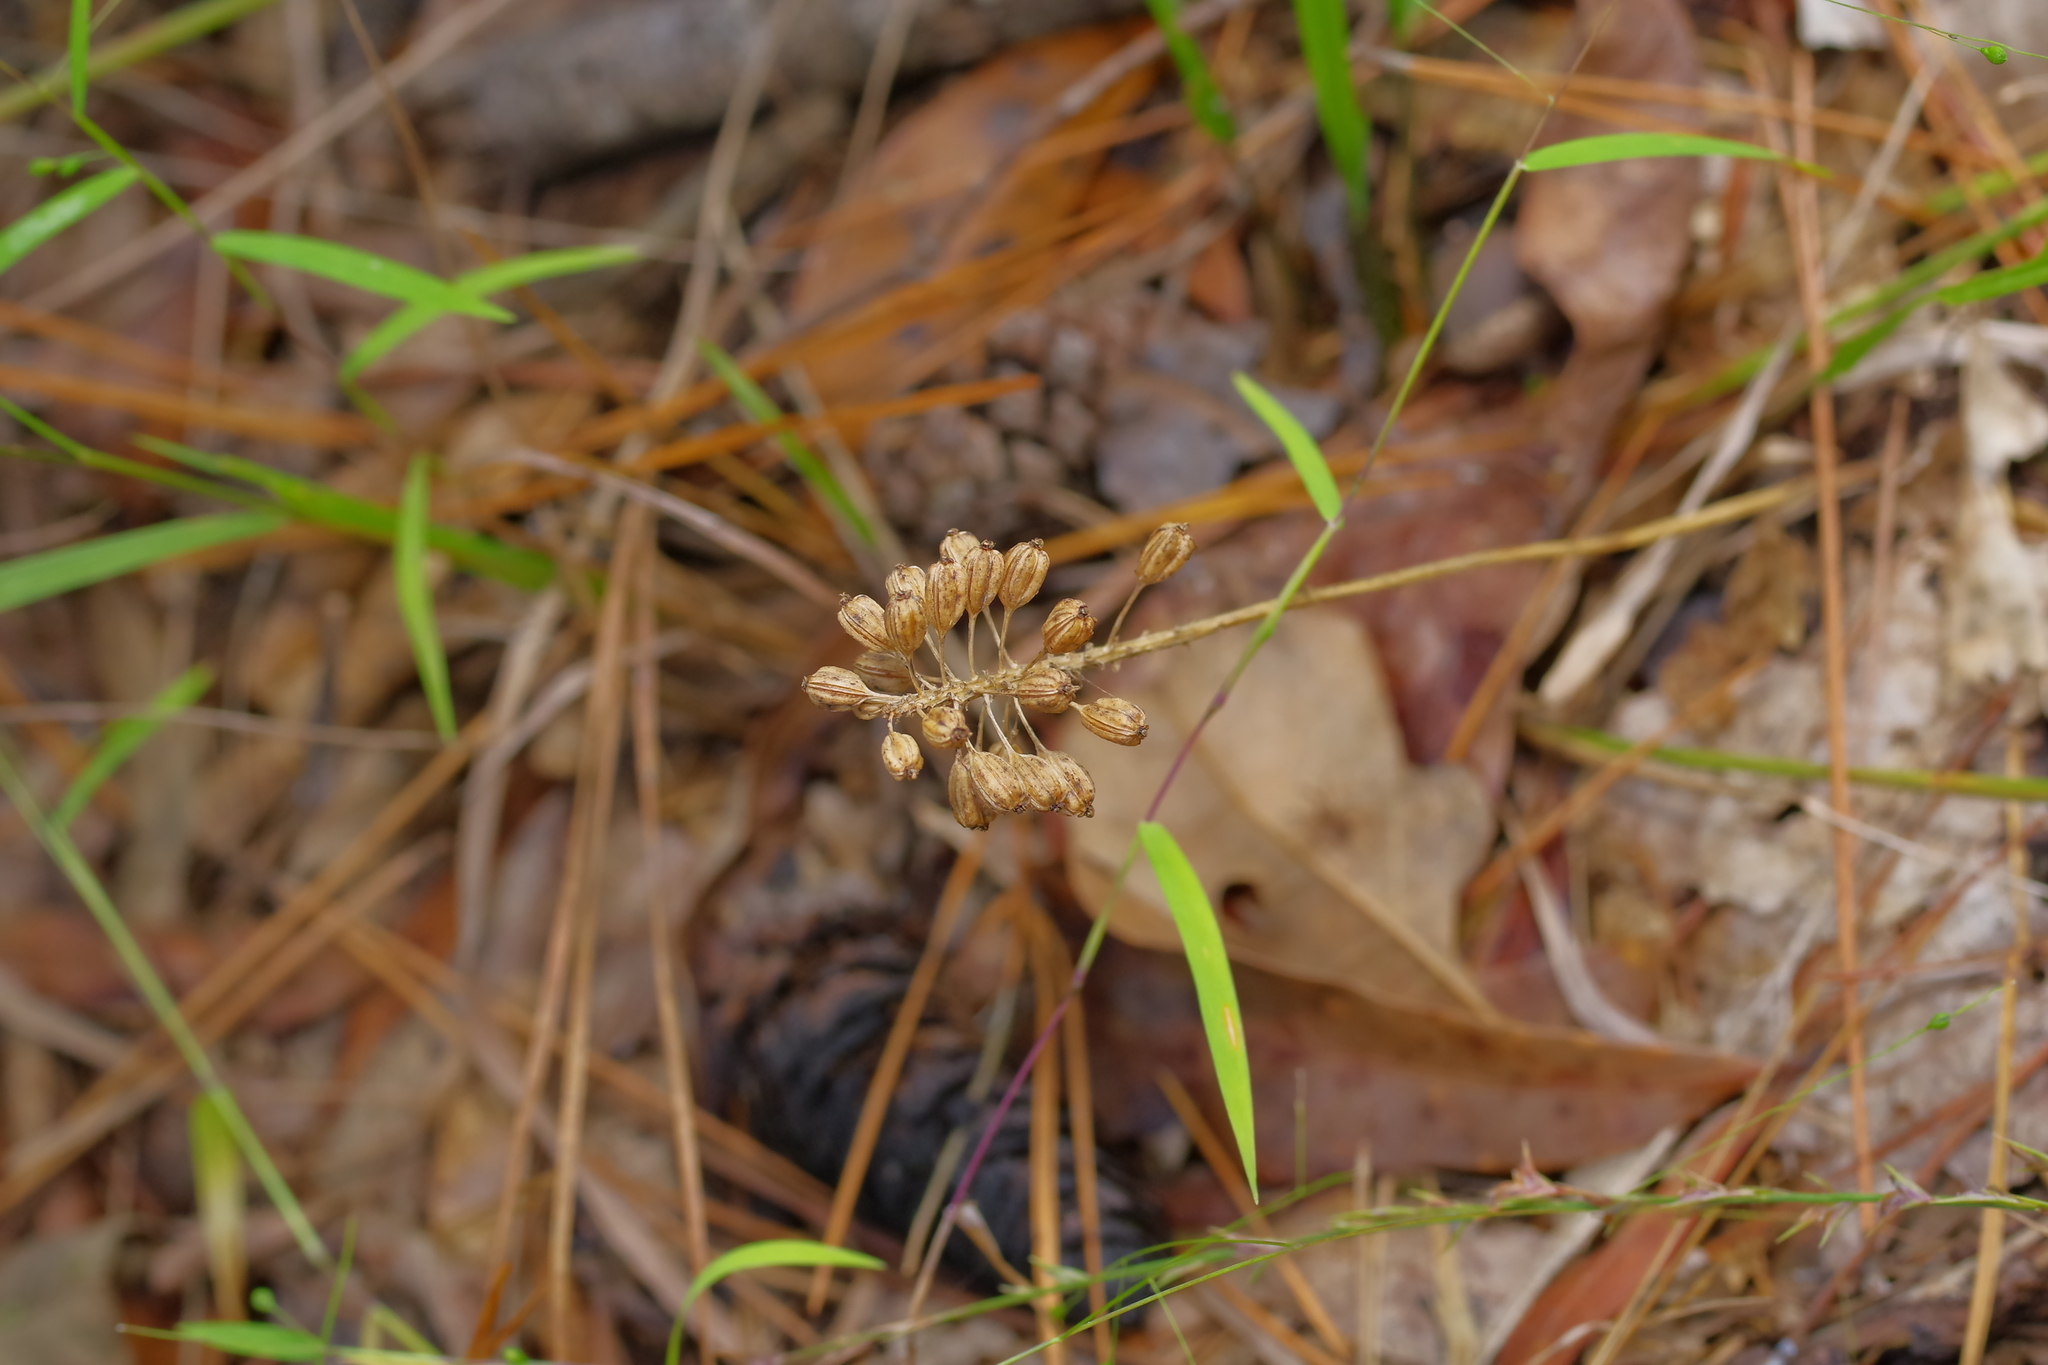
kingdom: Plantae
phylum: Tracheophyta
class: Liliopsida
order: Asparagales
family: Orchidaceae
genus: Malaxis
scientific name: Malaxis unifolia
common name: Green adder's-mouth
